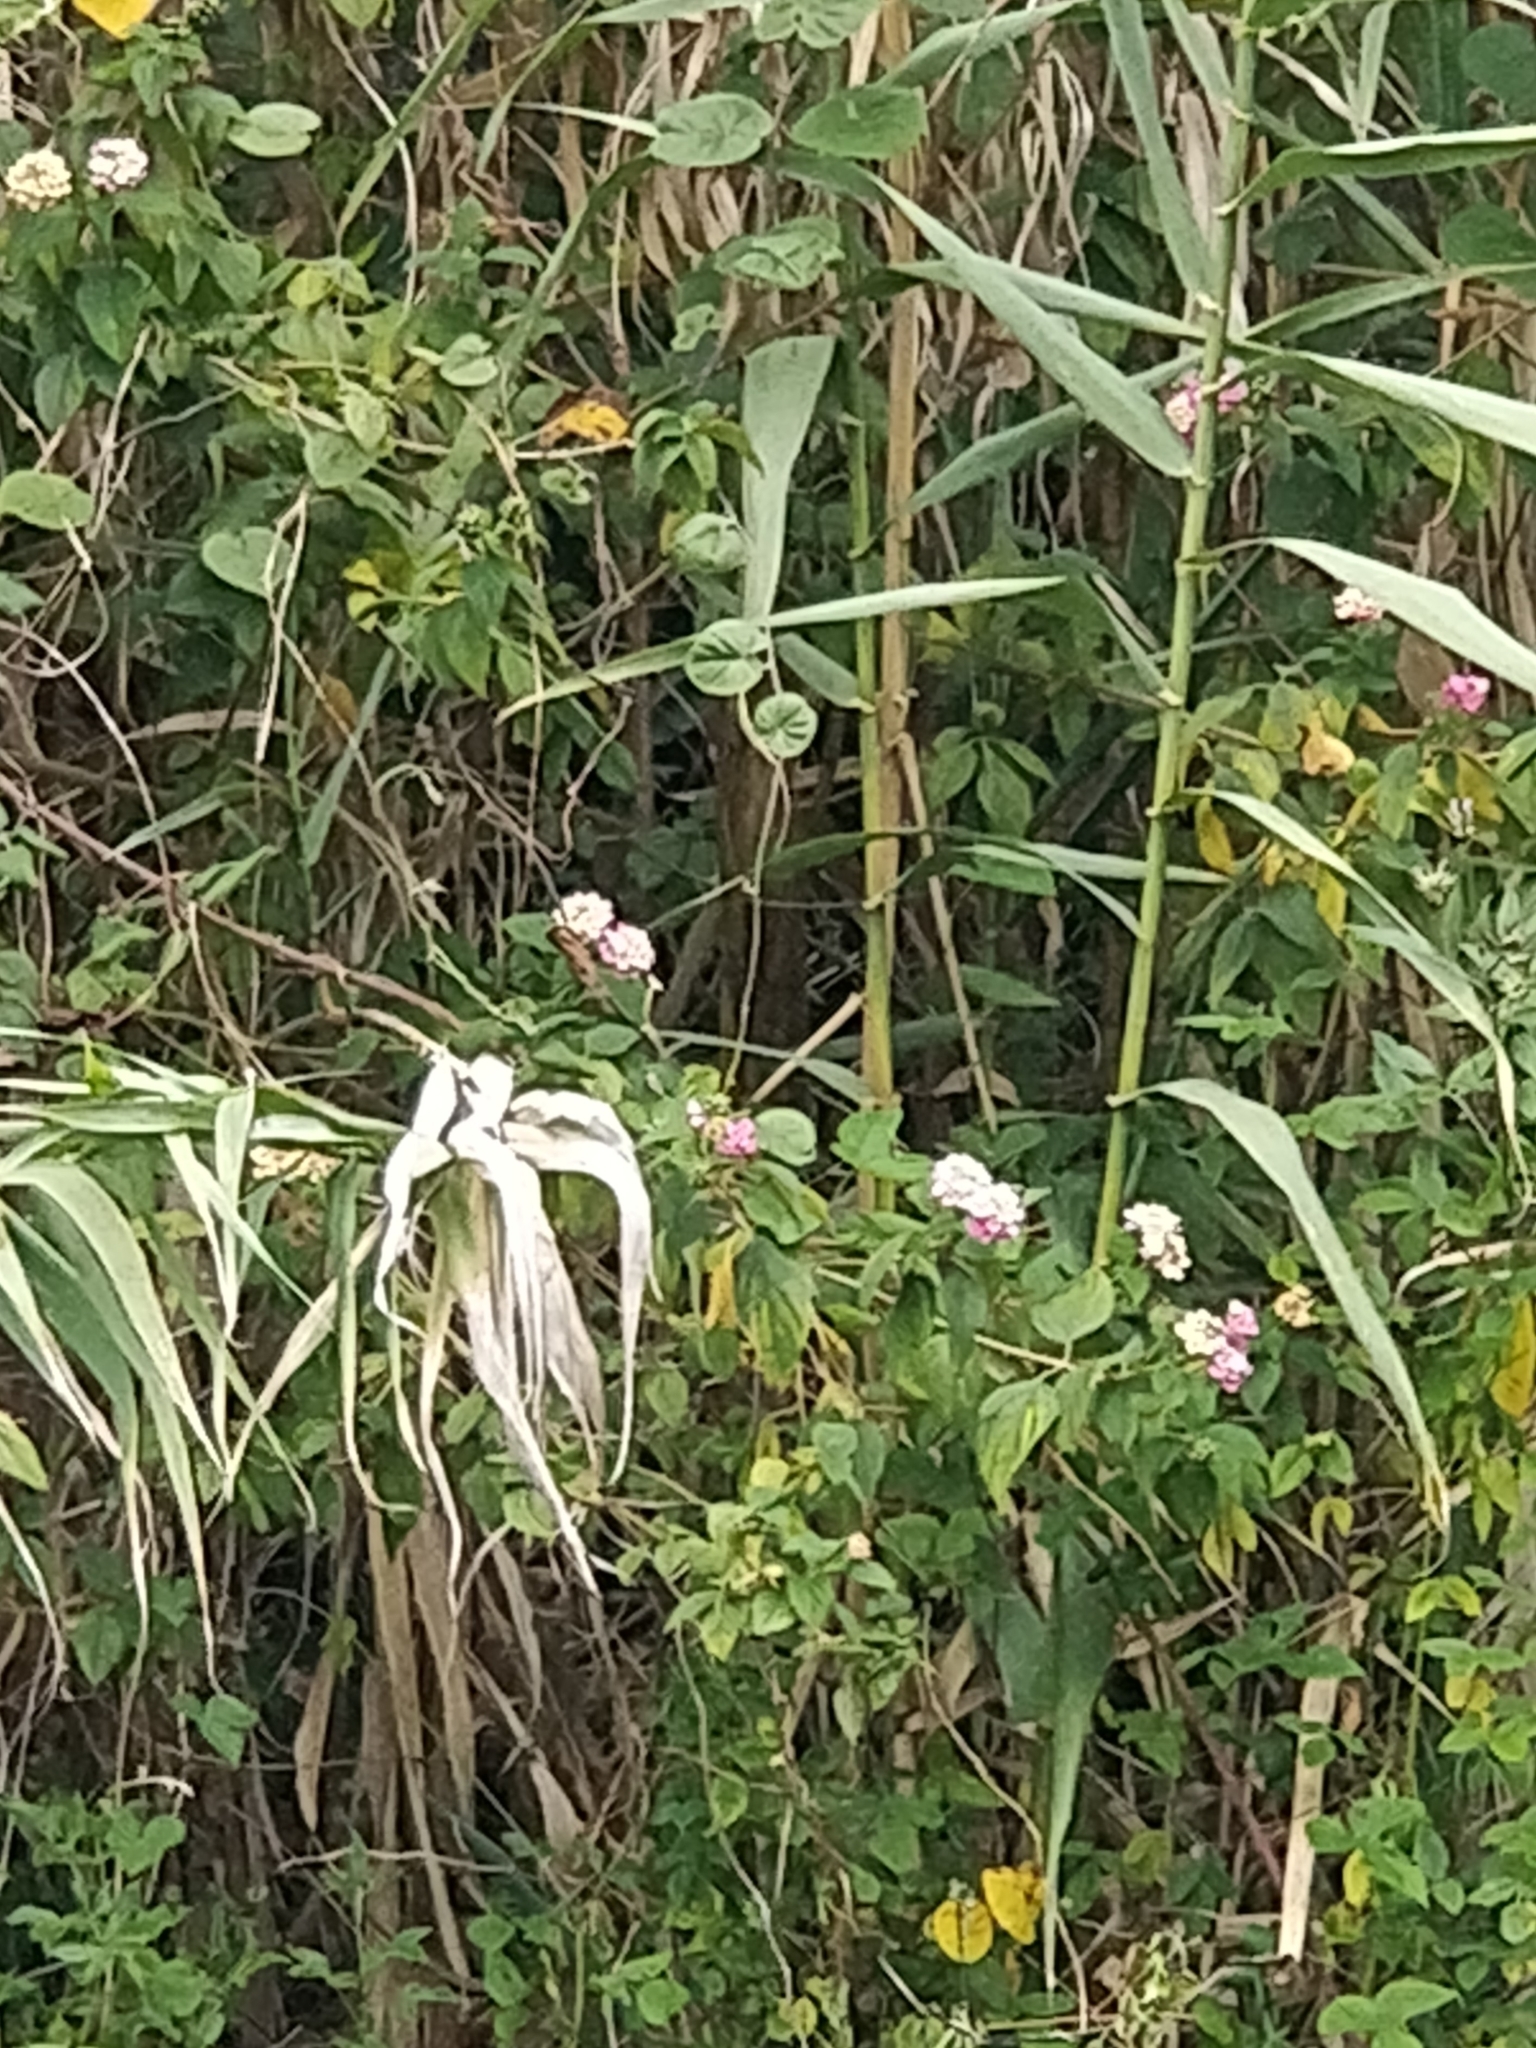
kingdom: Plantae
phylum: Tracheophyta
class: Magnoliopsida
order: Lamiales
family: Verbenaceae
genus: Lantana
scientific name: Lantana camara
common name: Lantana
